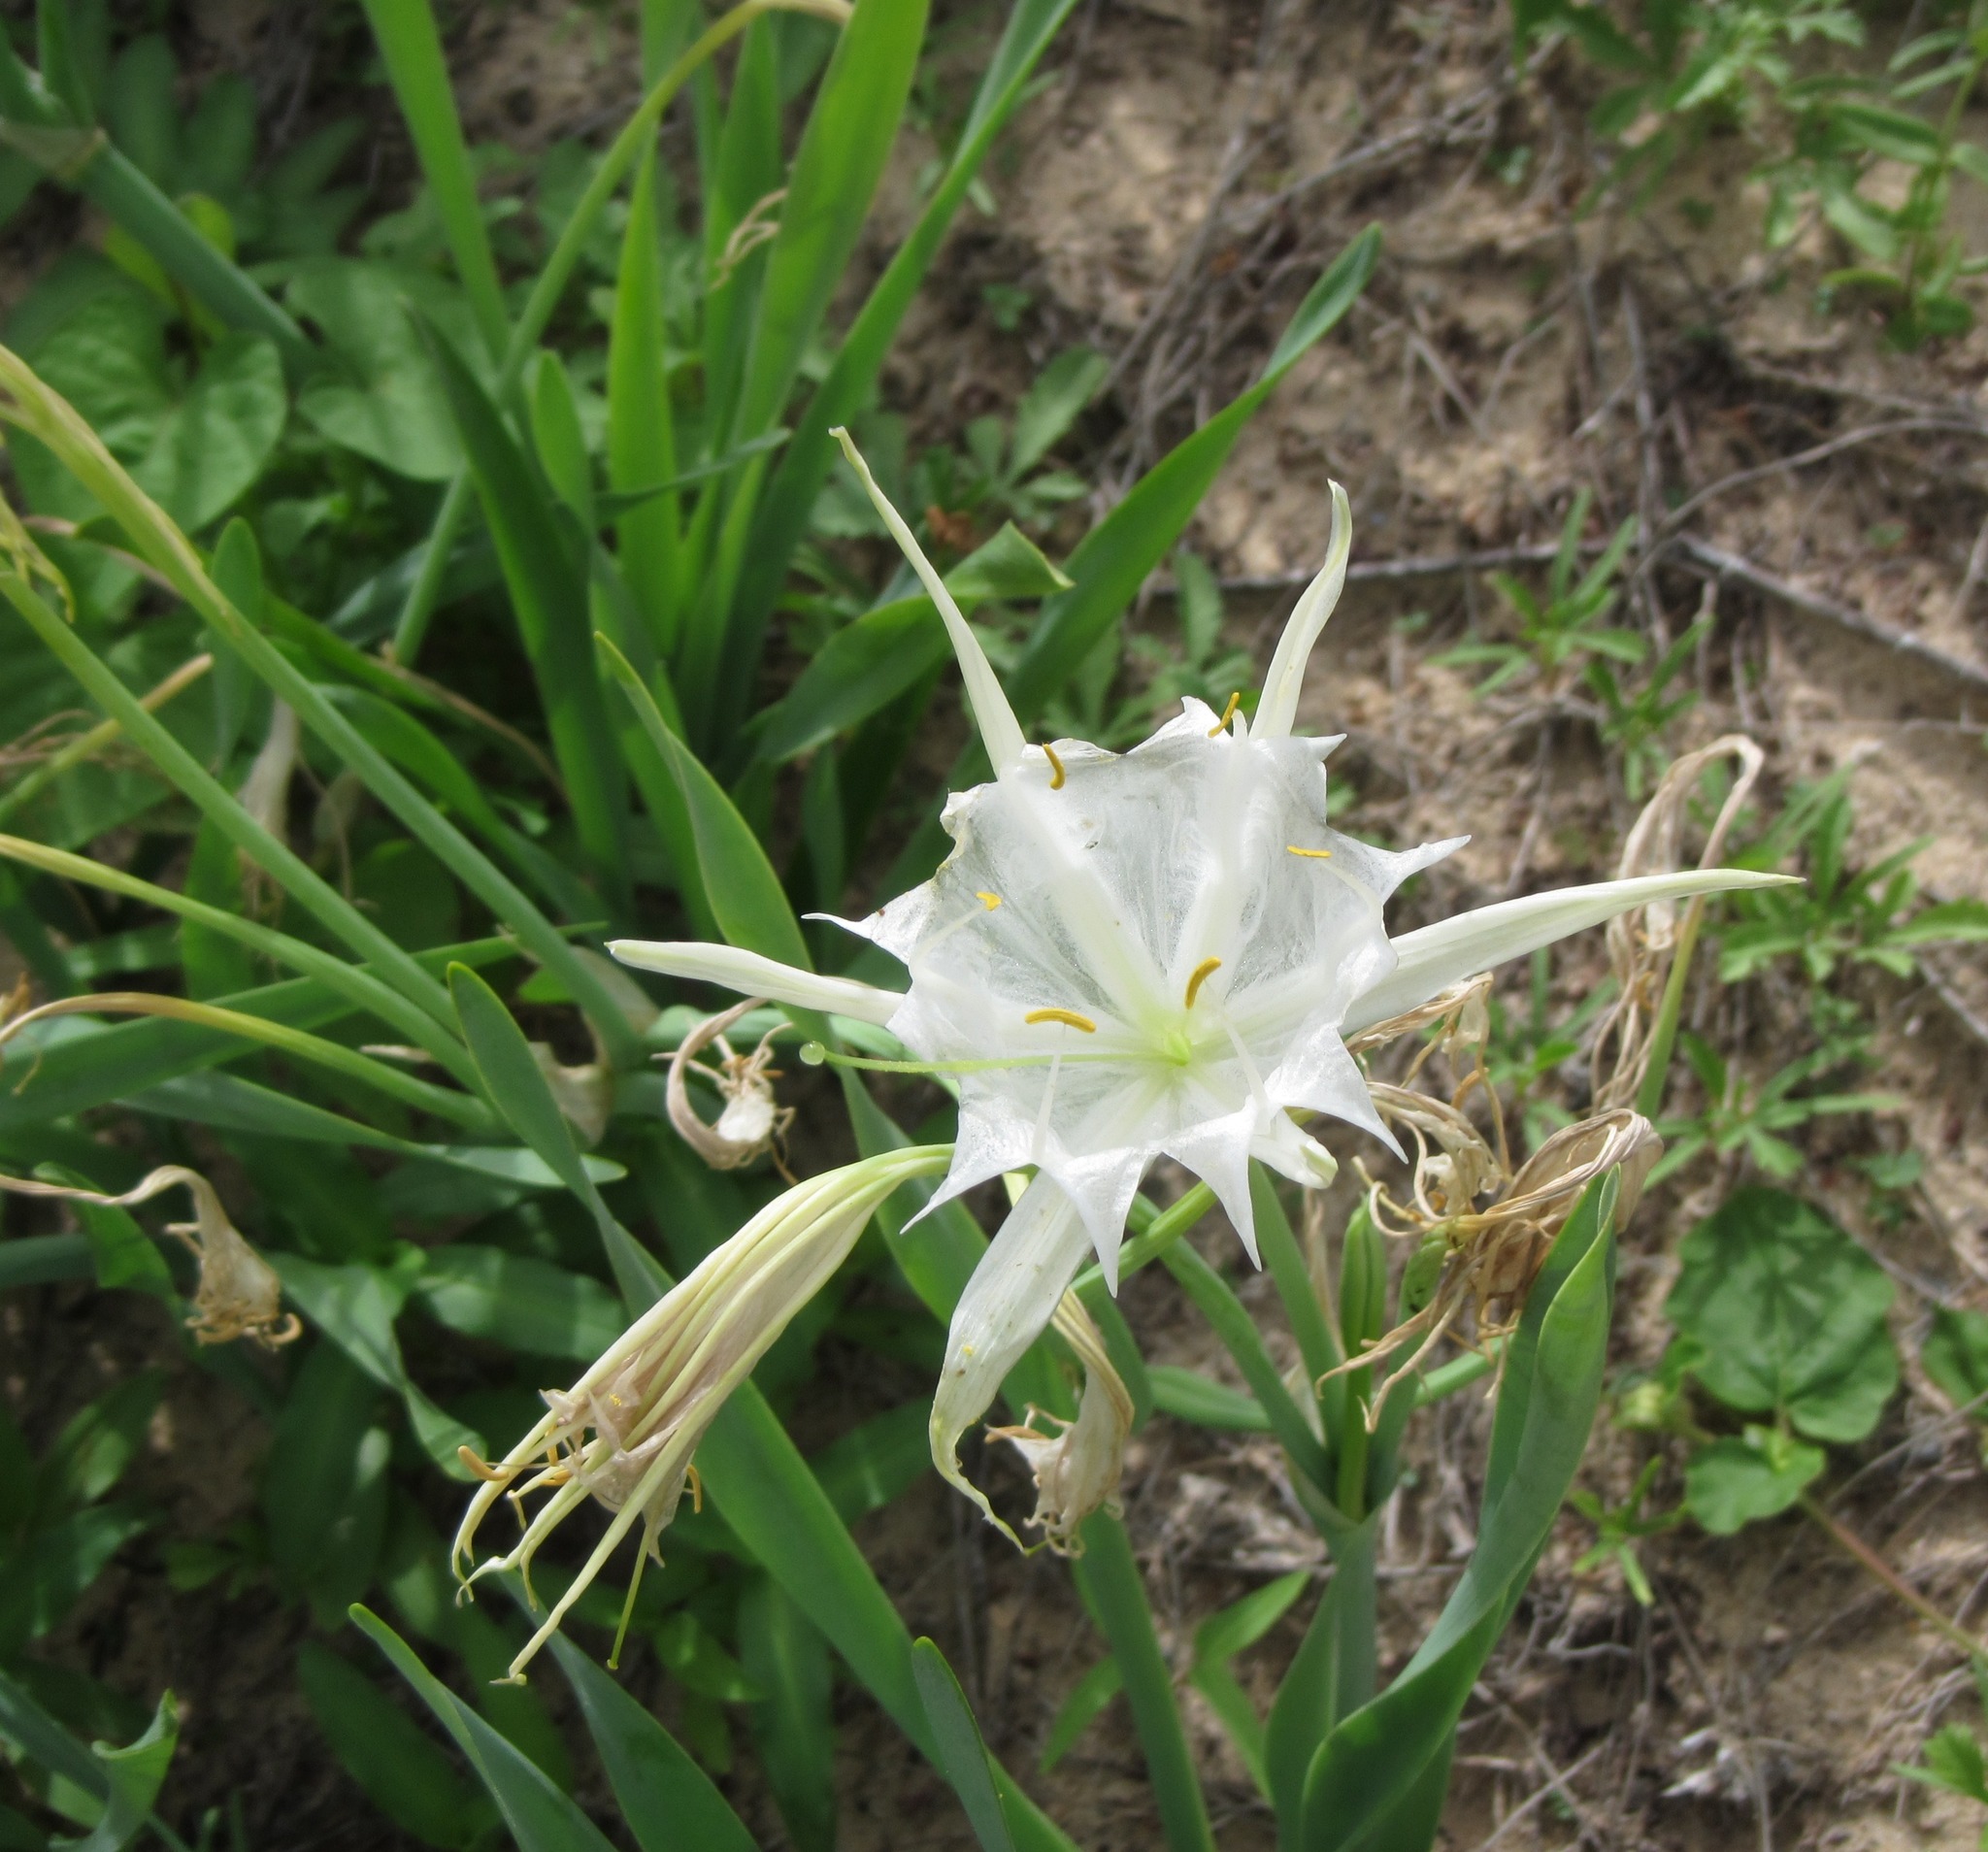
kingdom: Plantae
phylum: Tracheophyta
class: Liliopsida
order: Asparagales
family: Amaryllidaceae
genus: Pancratium
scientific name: Pancratium trianthum
